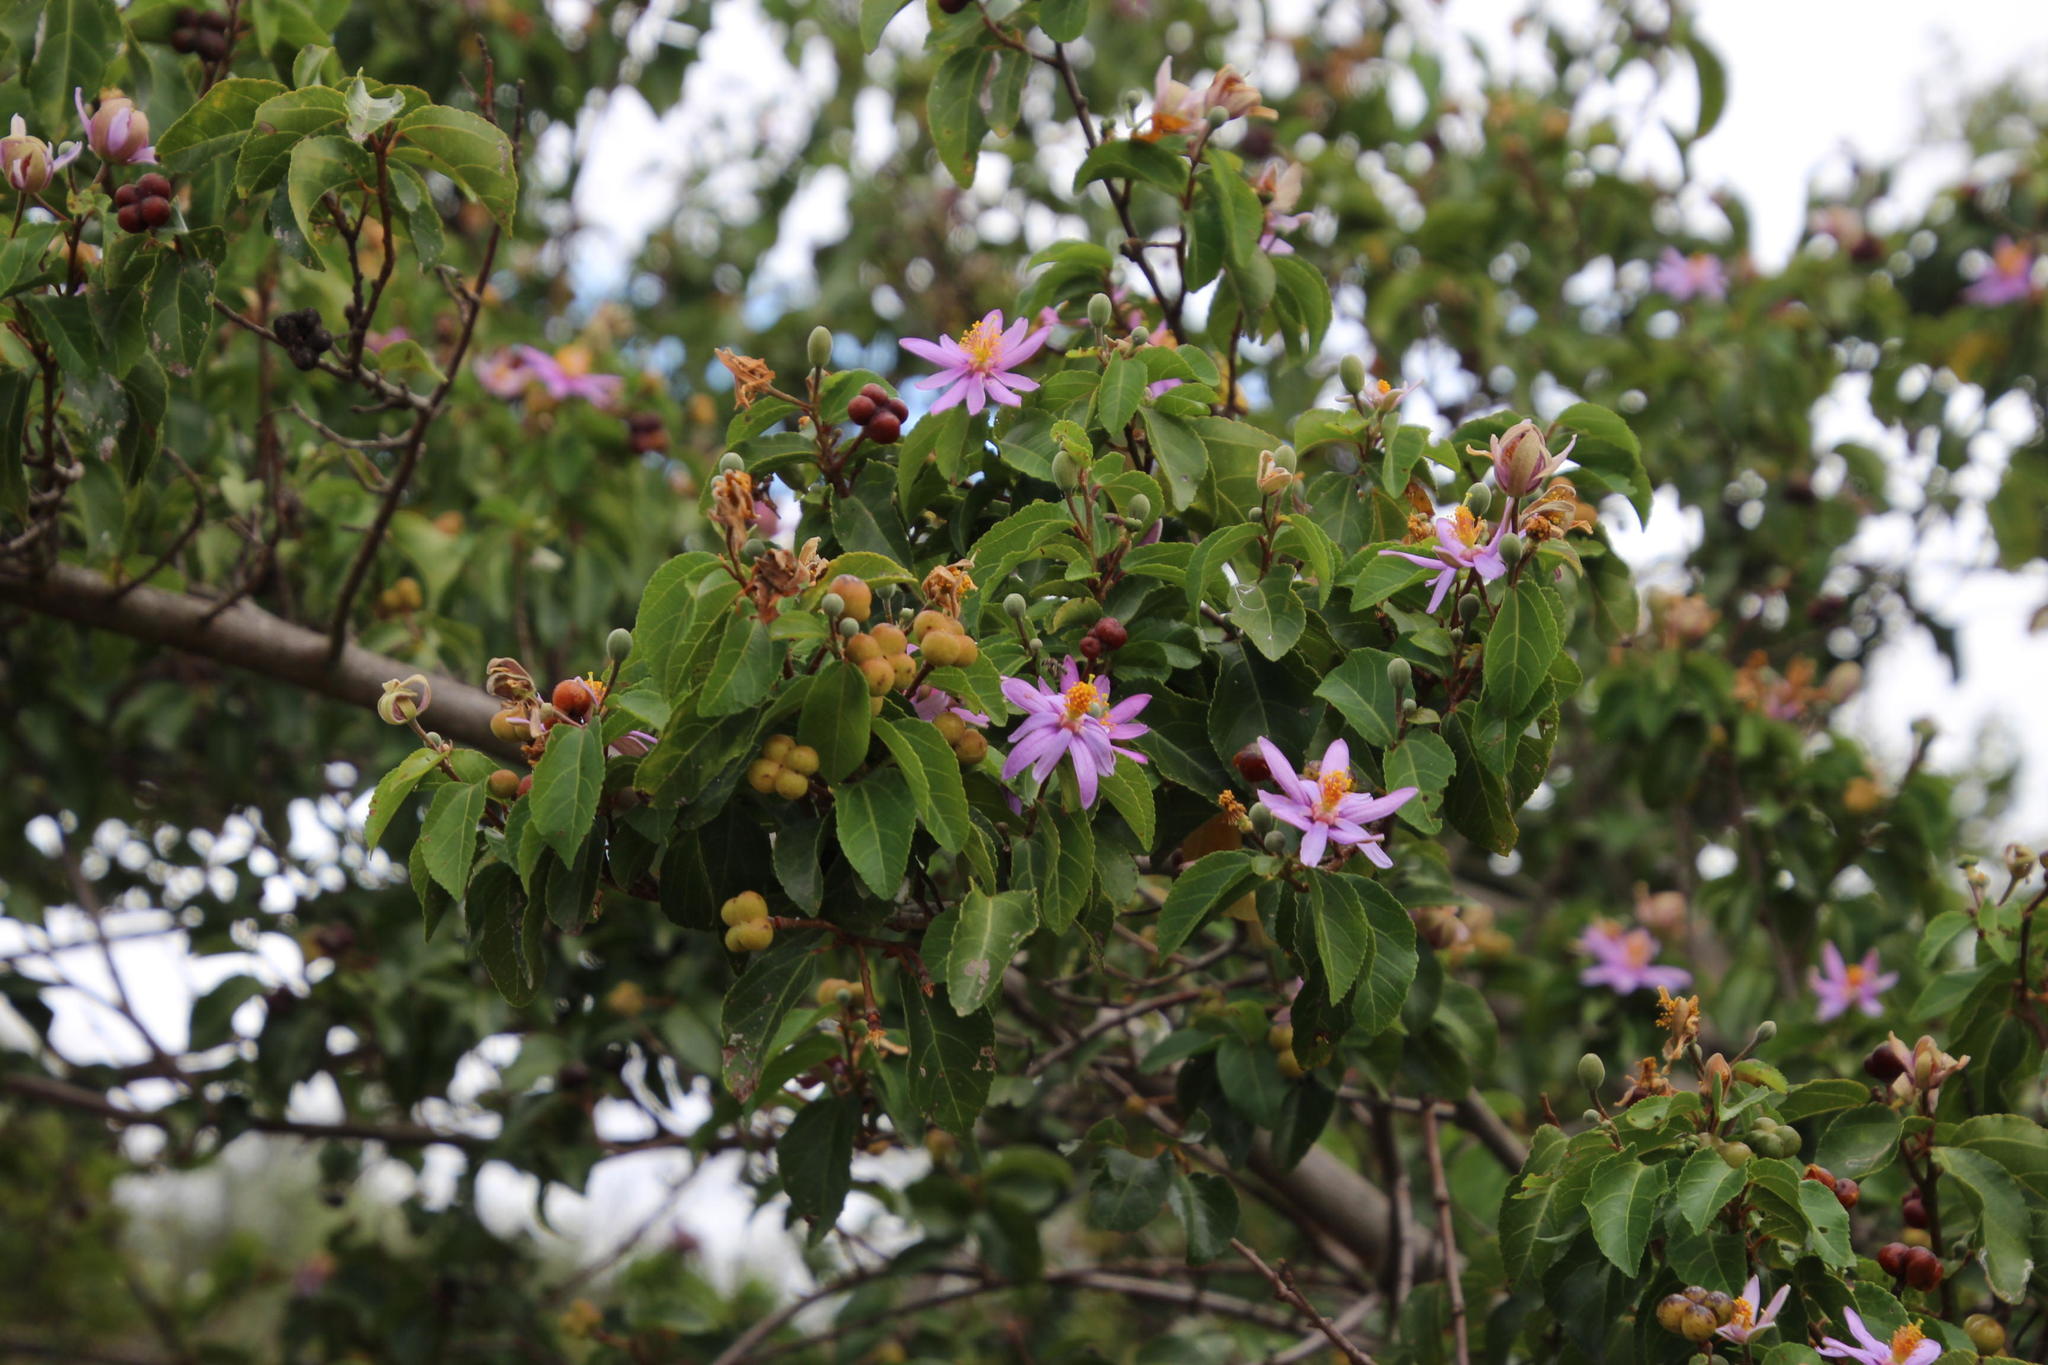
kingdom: Plantae
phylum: Tracheophyta
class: Magnoliopsida
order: Malvales
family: Malvaceae
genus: Grewia
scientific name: Grewia occidentalis
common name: Crossberry
